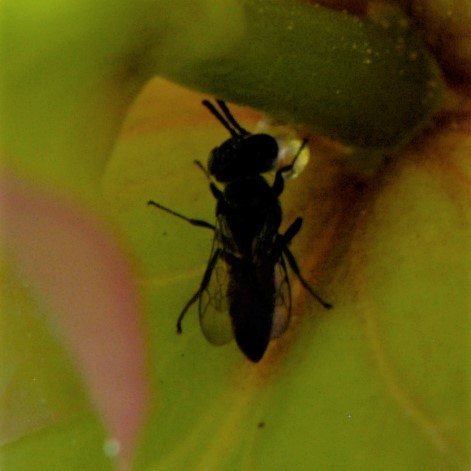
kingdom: Animalia
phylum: Arthropoda
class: Insecta
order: Hymenoptera
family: Crabronidae
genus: Solierella
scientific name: Solierella
